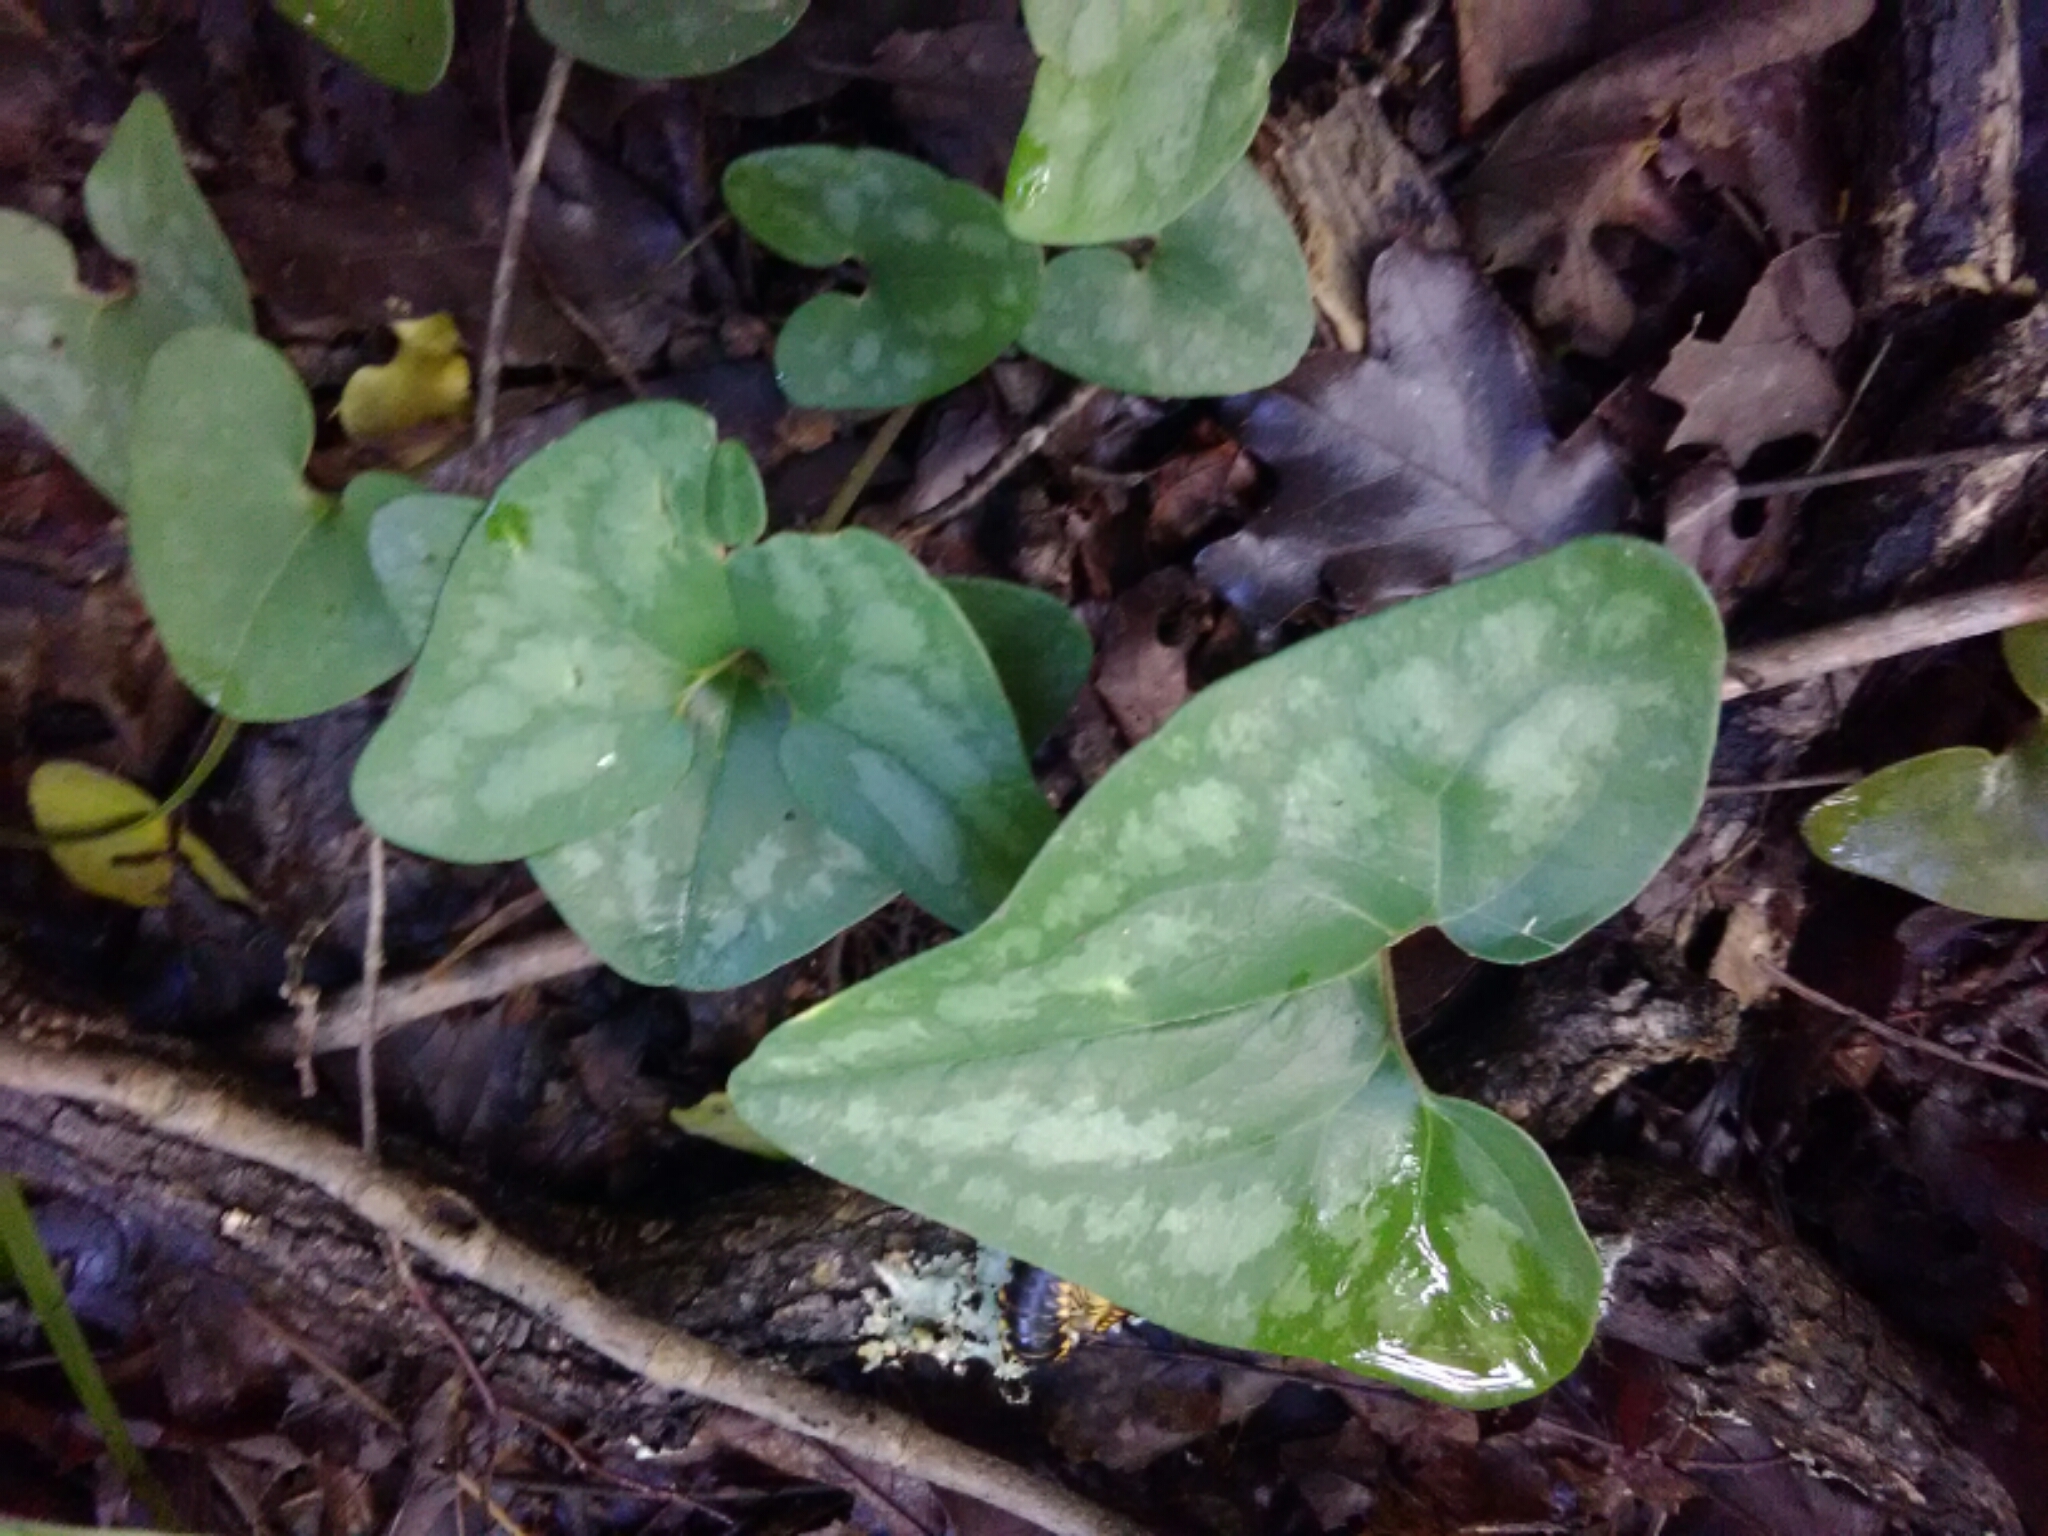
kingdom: Plantae
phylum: Tracheophyta
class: Magnoliopsida
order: Piperales
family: Aristolochiaceae
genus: Hexastylis
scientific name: Hexastylis arifolia
